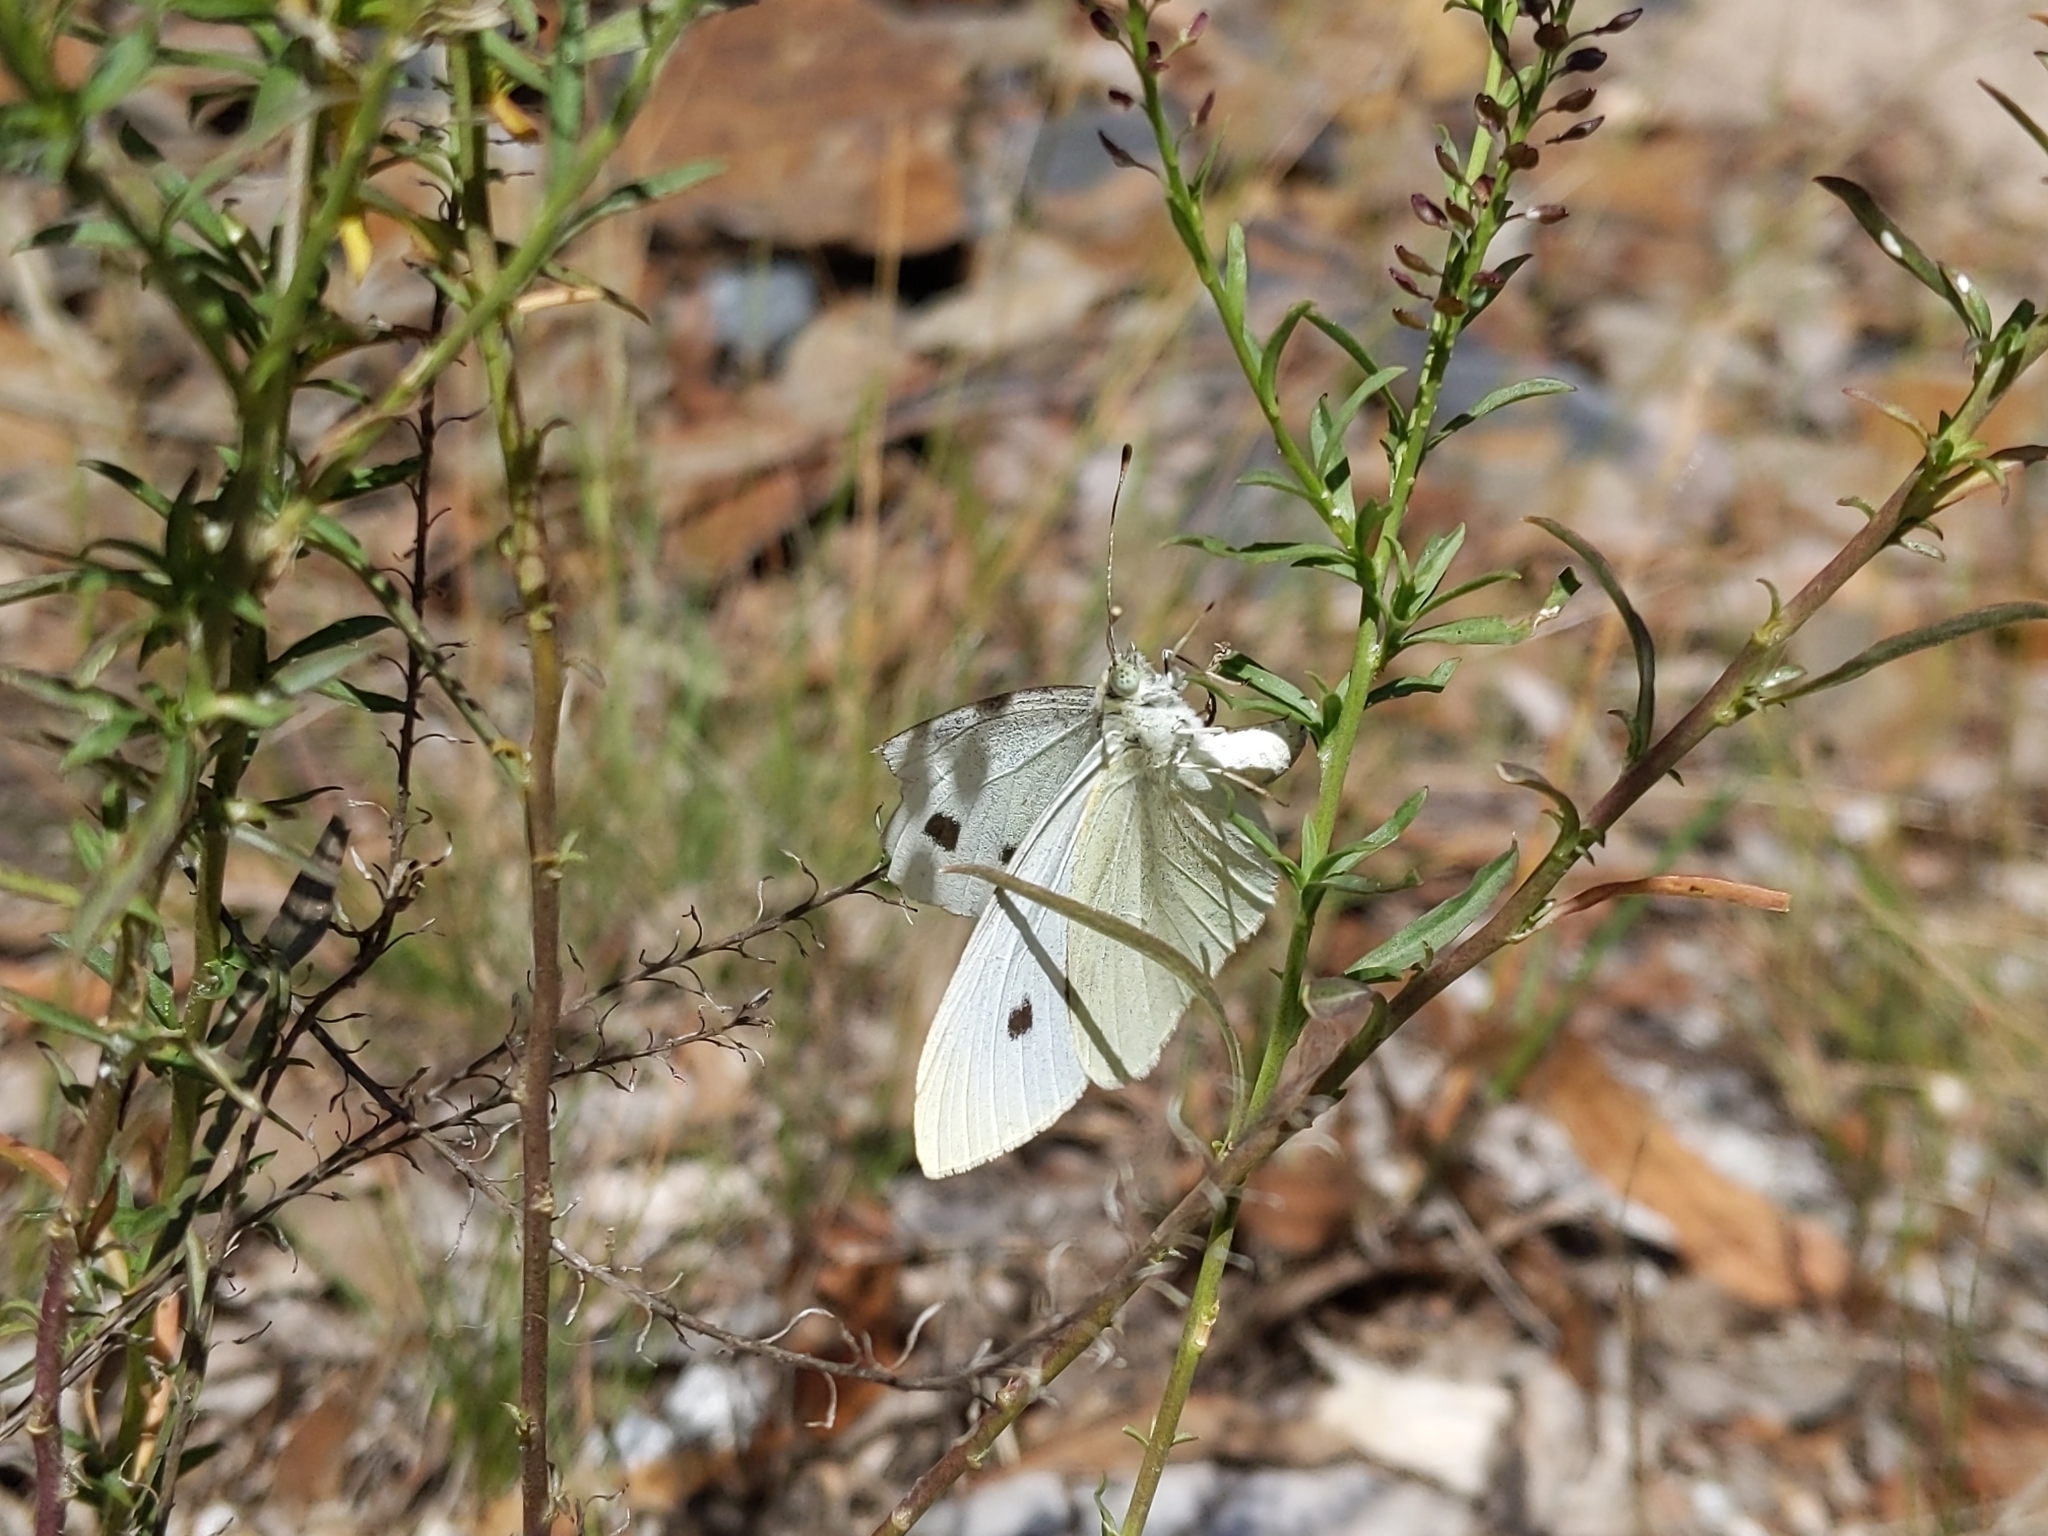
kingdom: Animalia
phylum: Arthropoda
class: Insecta
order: Lepidoptera
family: Pieridae
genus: Pieris
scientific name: Pieris rapae
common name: Small white
